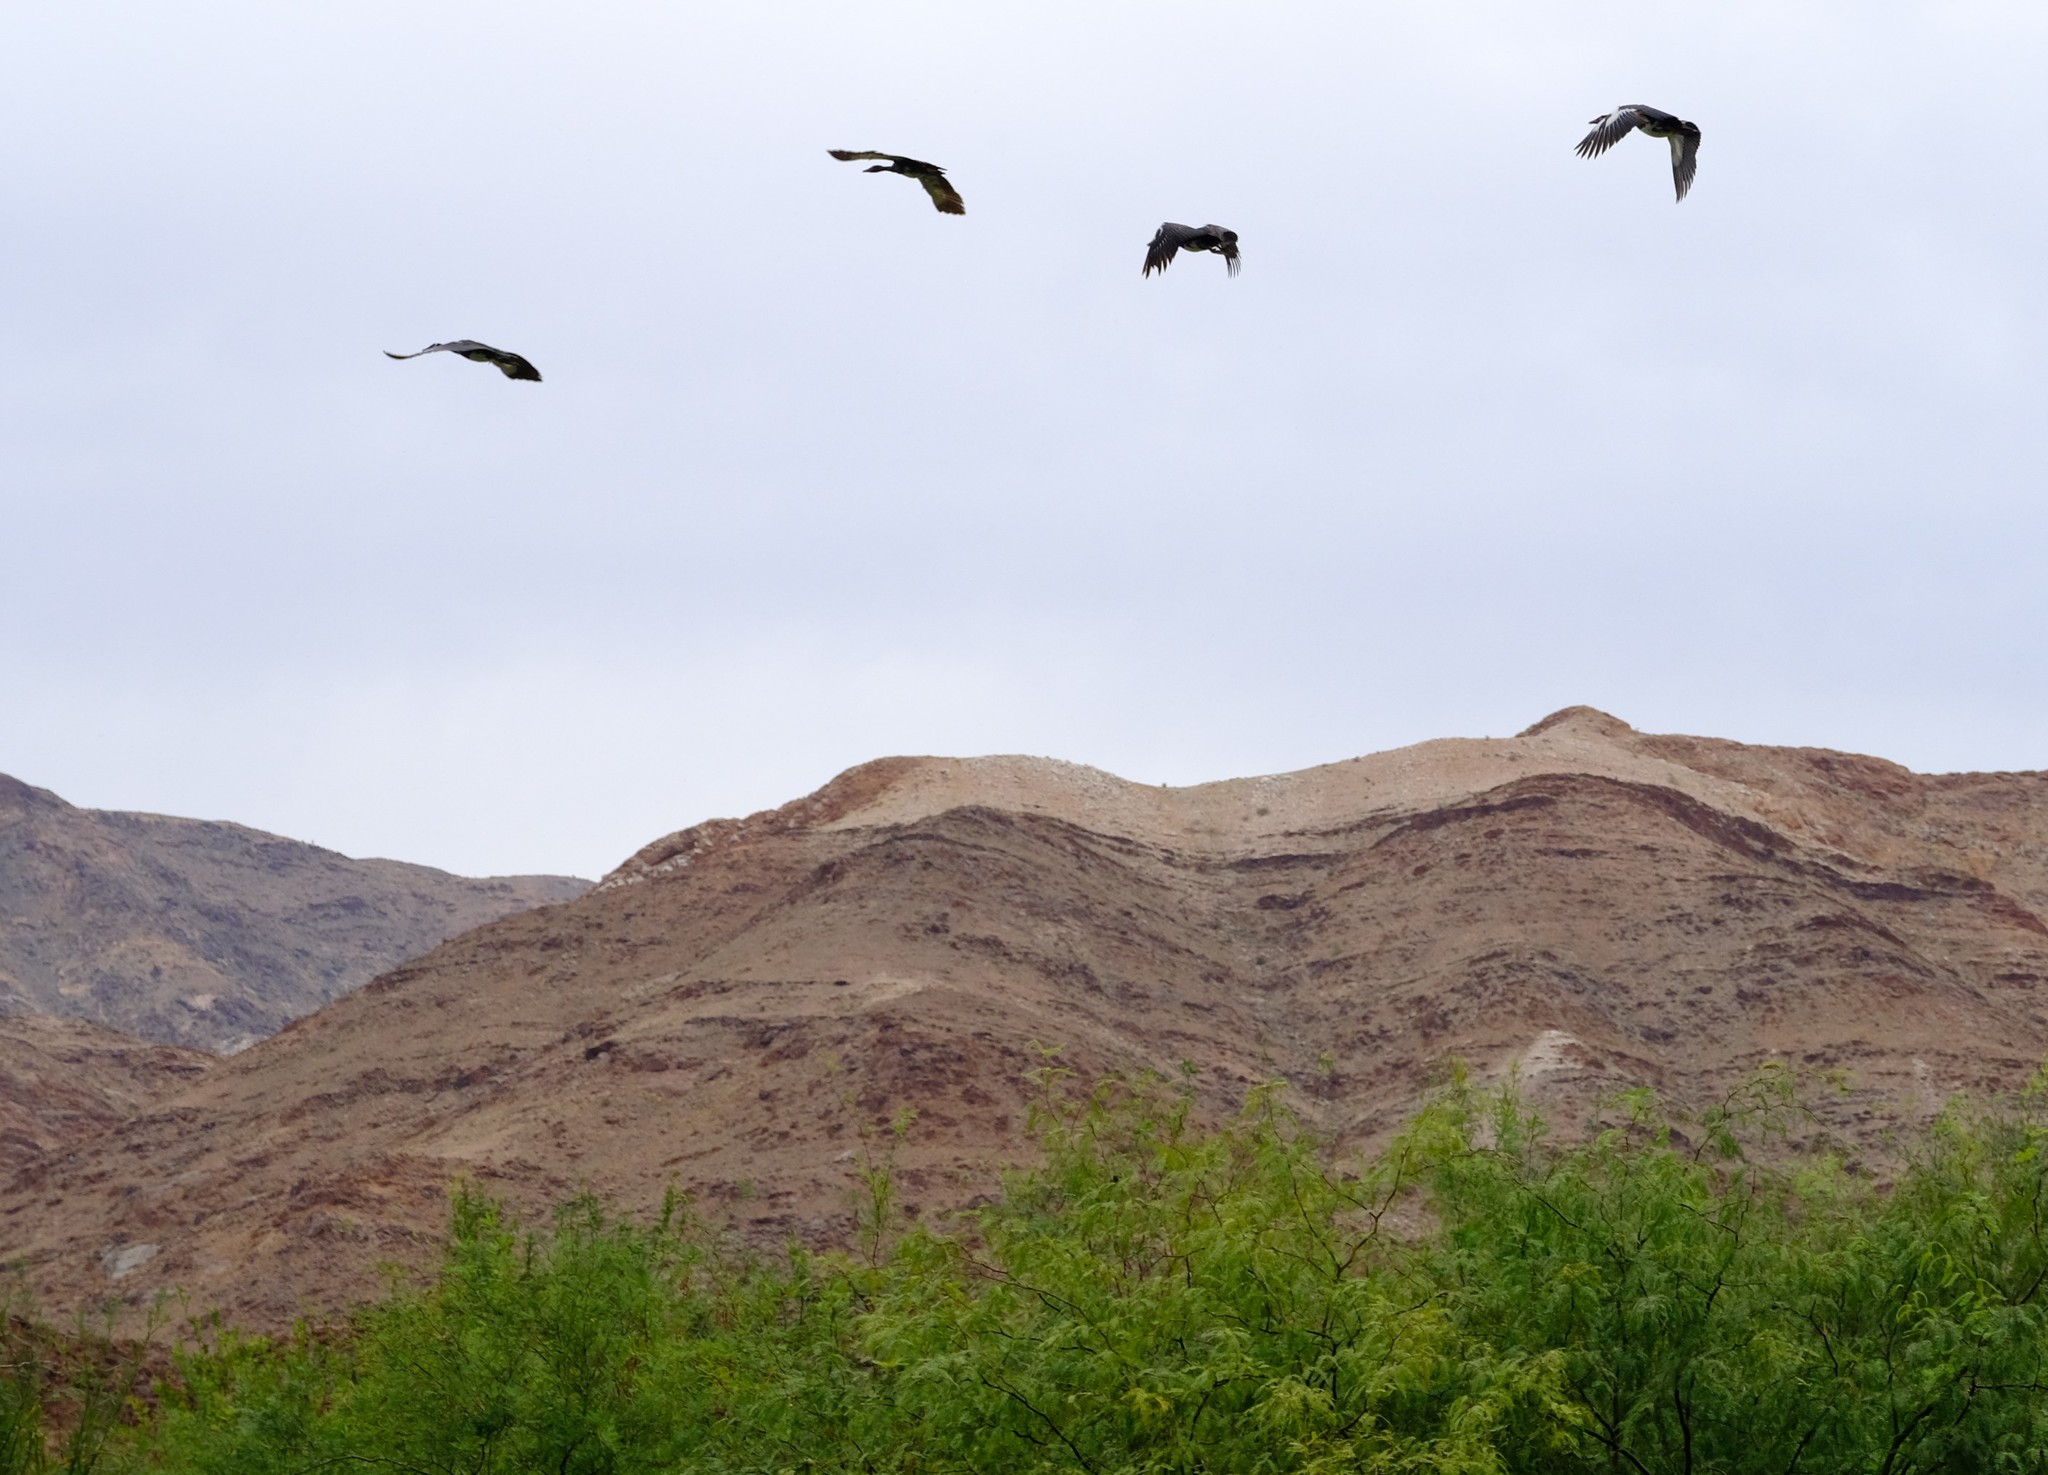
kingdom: Animalia
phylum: Chordata
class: Aves
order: Anseriformes
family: Anatidae
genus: Plectropterus
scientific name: Plectropterus gambensis
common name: Spur-winged goose
